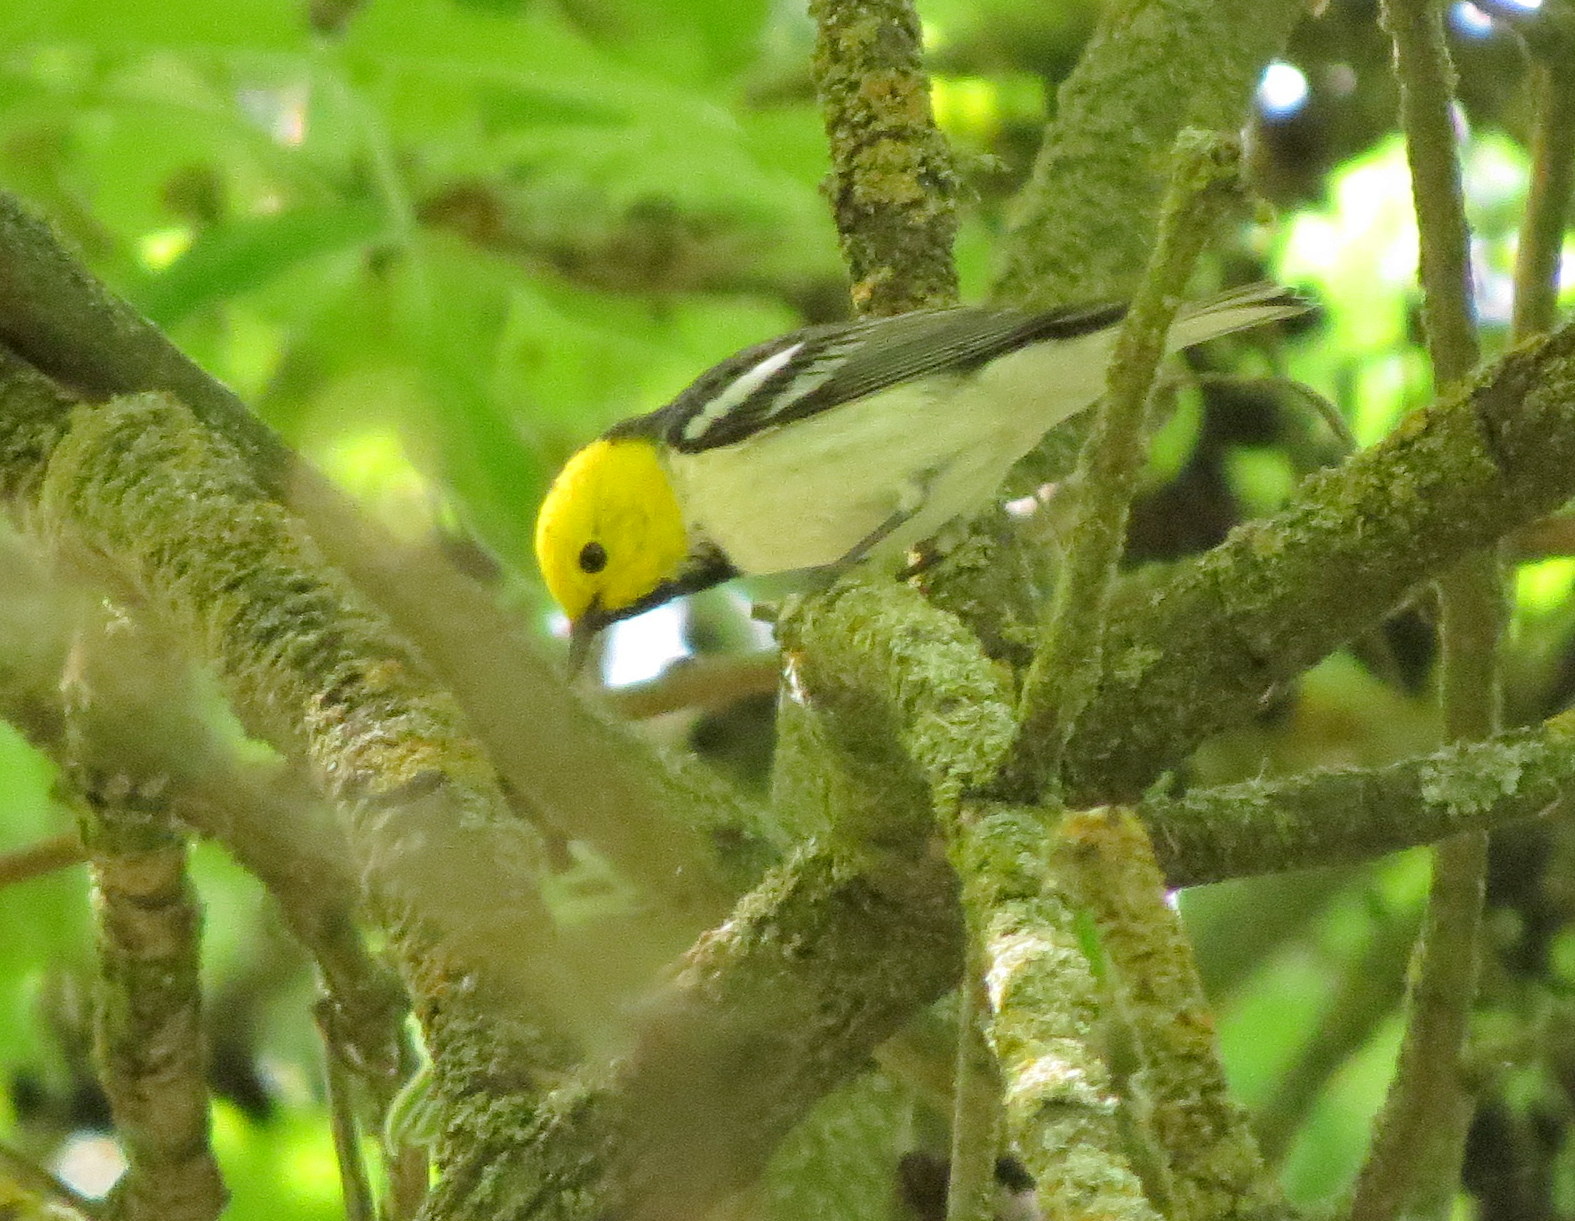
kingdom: Animalia
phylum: Chordata
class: Aves
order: Passeriformes
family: Parulidae
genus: Setophaga
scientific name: Setophaga occidentalis
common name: Hermit warbler
